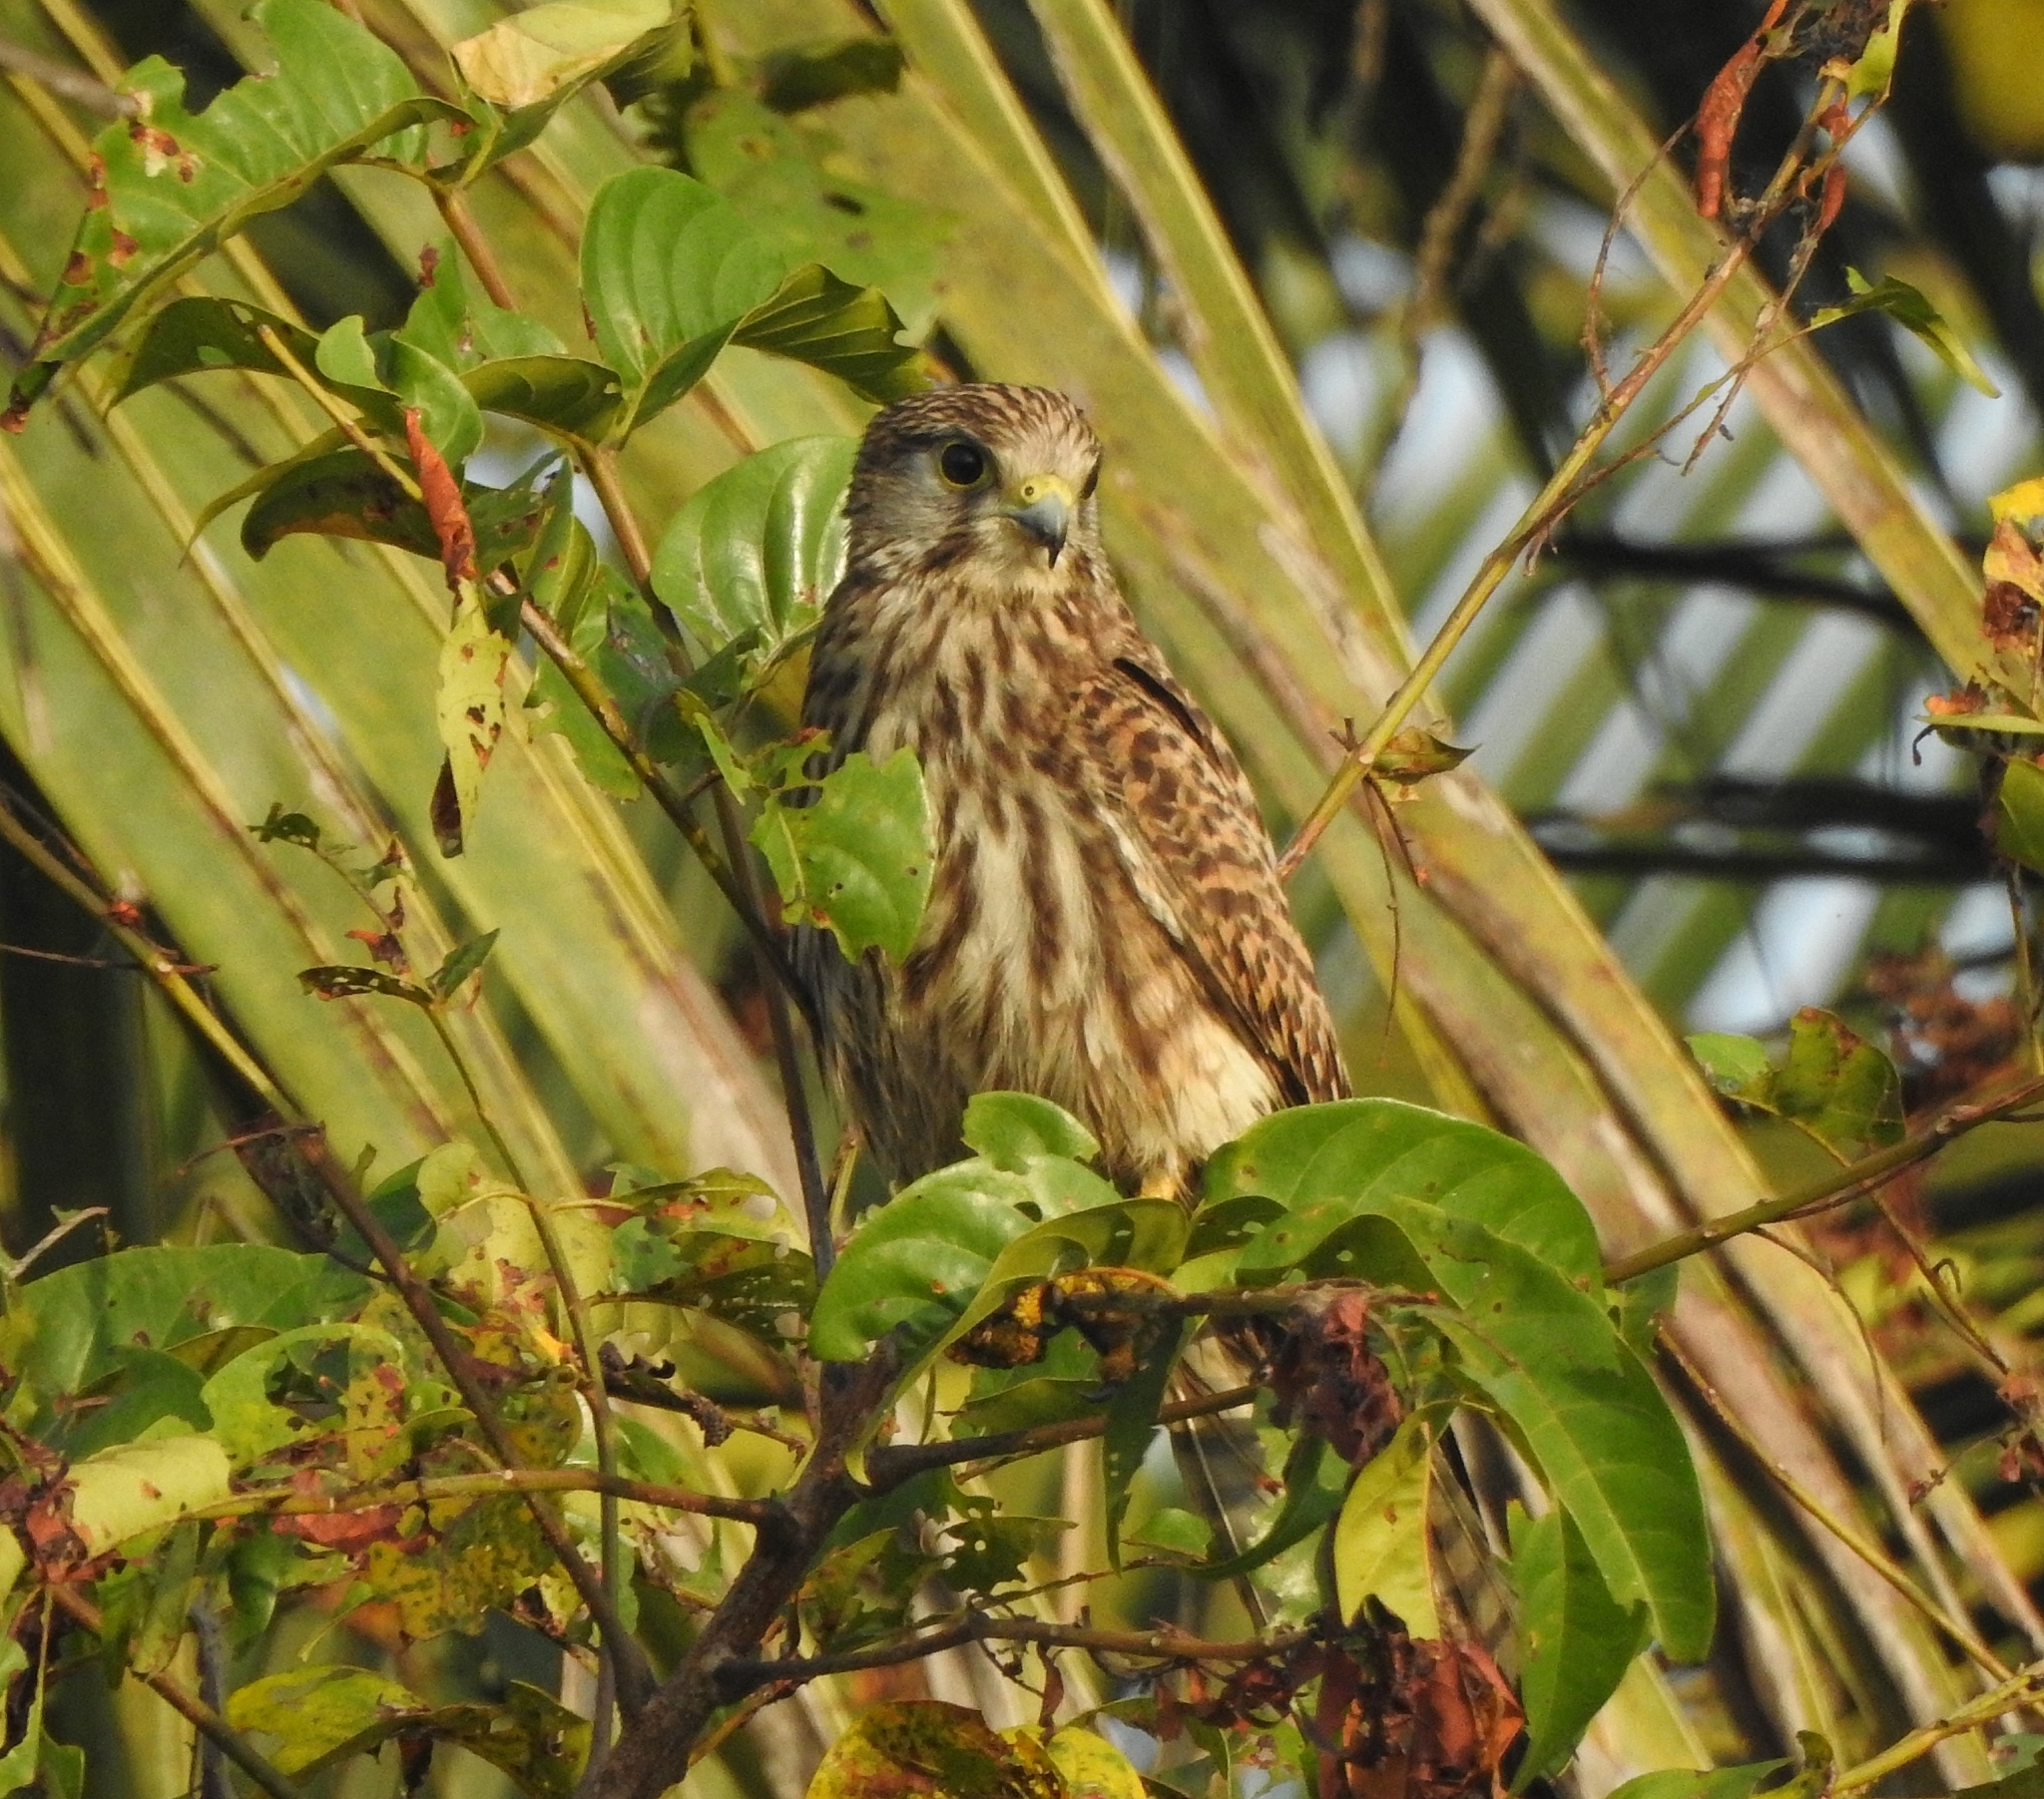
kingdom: Animalia
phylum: Chordata
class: Aves
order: Falconiformes
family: Falconidae
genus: Falco
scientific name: Falco tinnunculus
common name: Common kestrel
